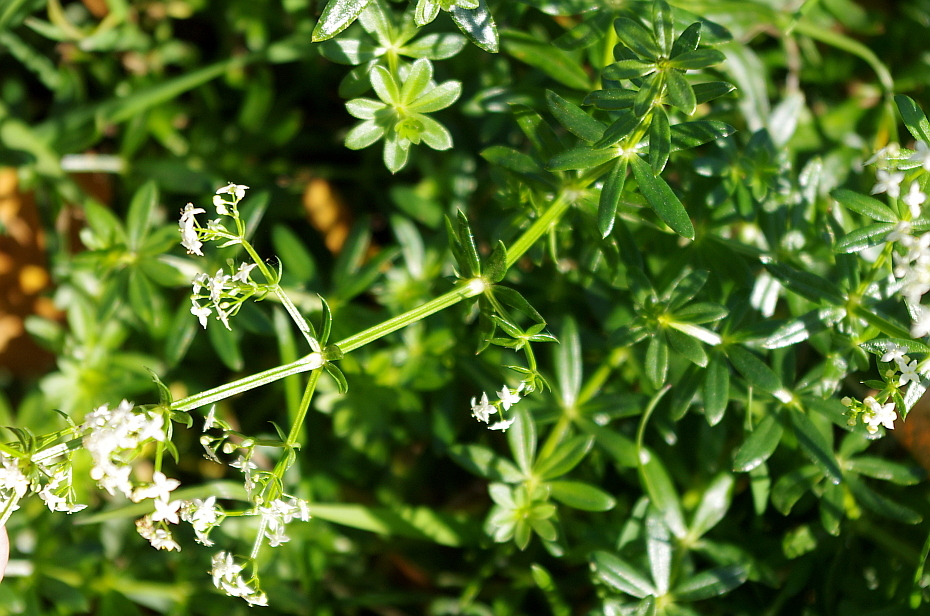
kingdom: Plantae
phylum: Tracheophyta
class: Magnoliopsida
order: Gentianales
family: Rubiaceae
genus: Galium
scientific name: Galium mollugo
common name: Hedge bedstraw
